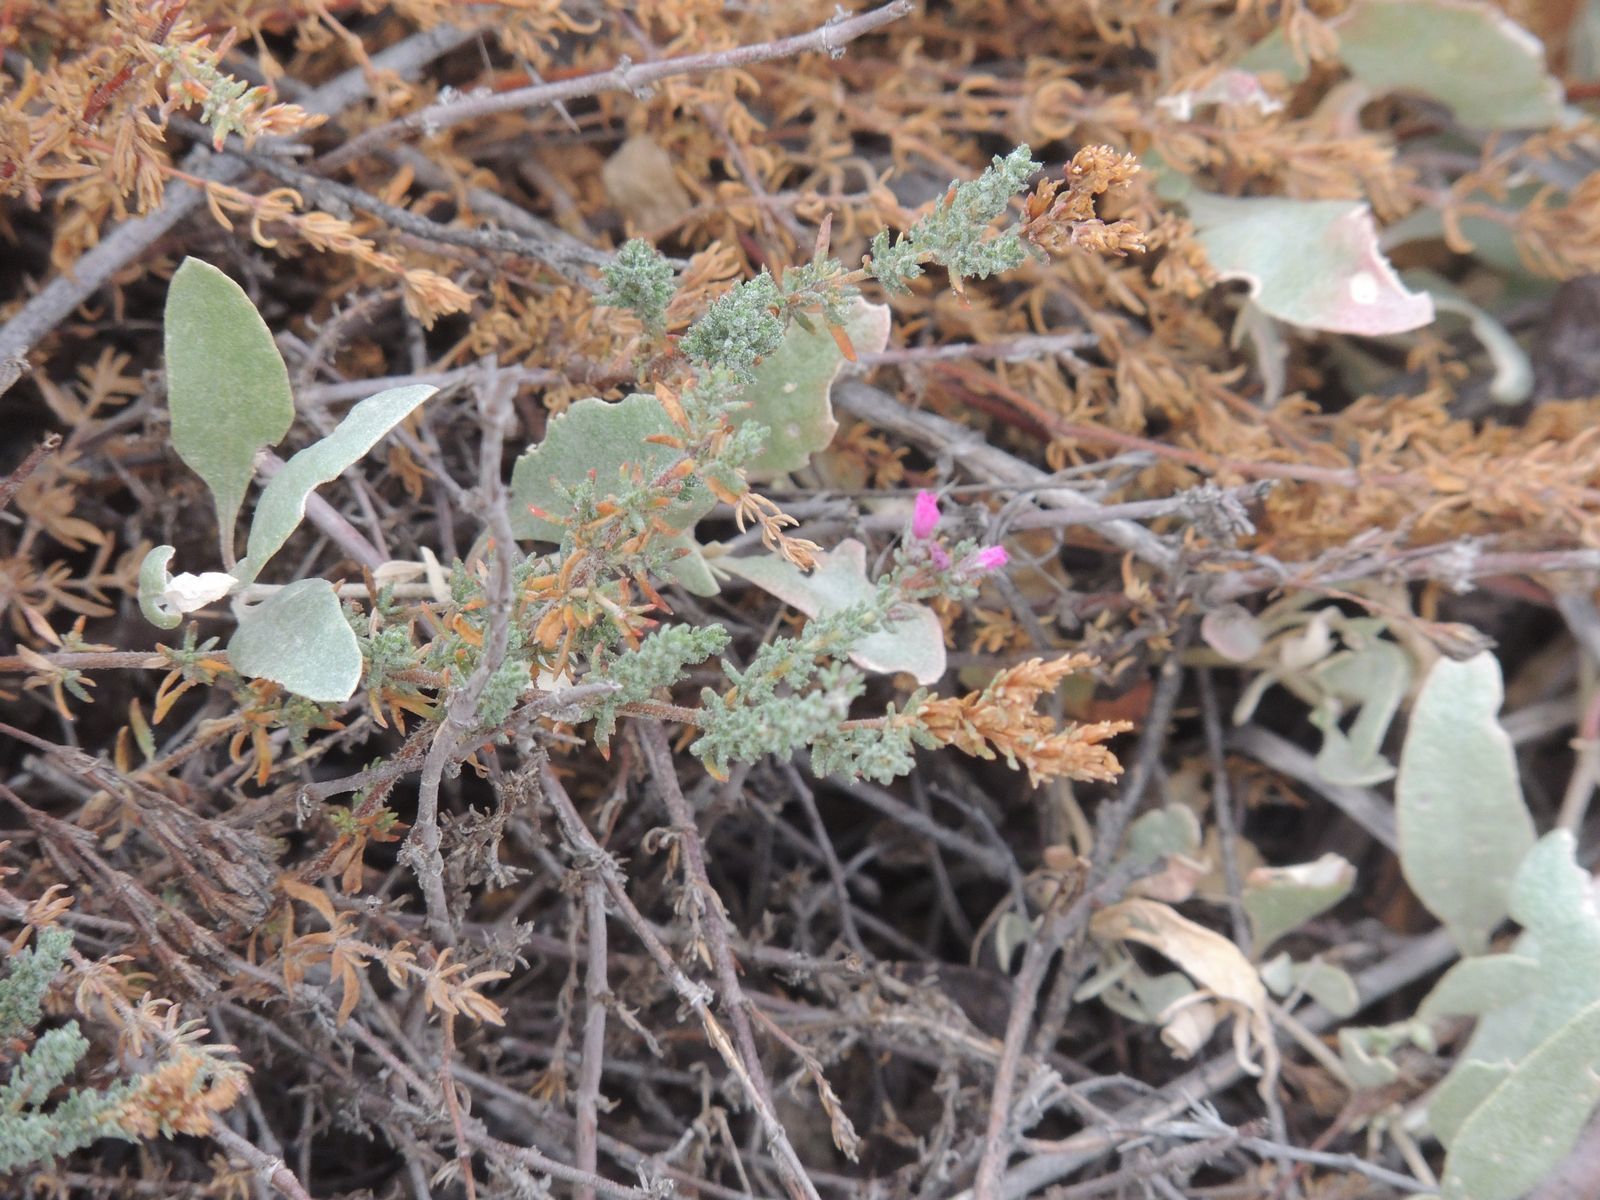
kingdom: Plantae
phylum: Tracheophyta
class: Magnoliopsida
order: Caryophyllales
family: Frankeniaceae
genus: Frankenia
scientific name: Frankenia hirsuta
